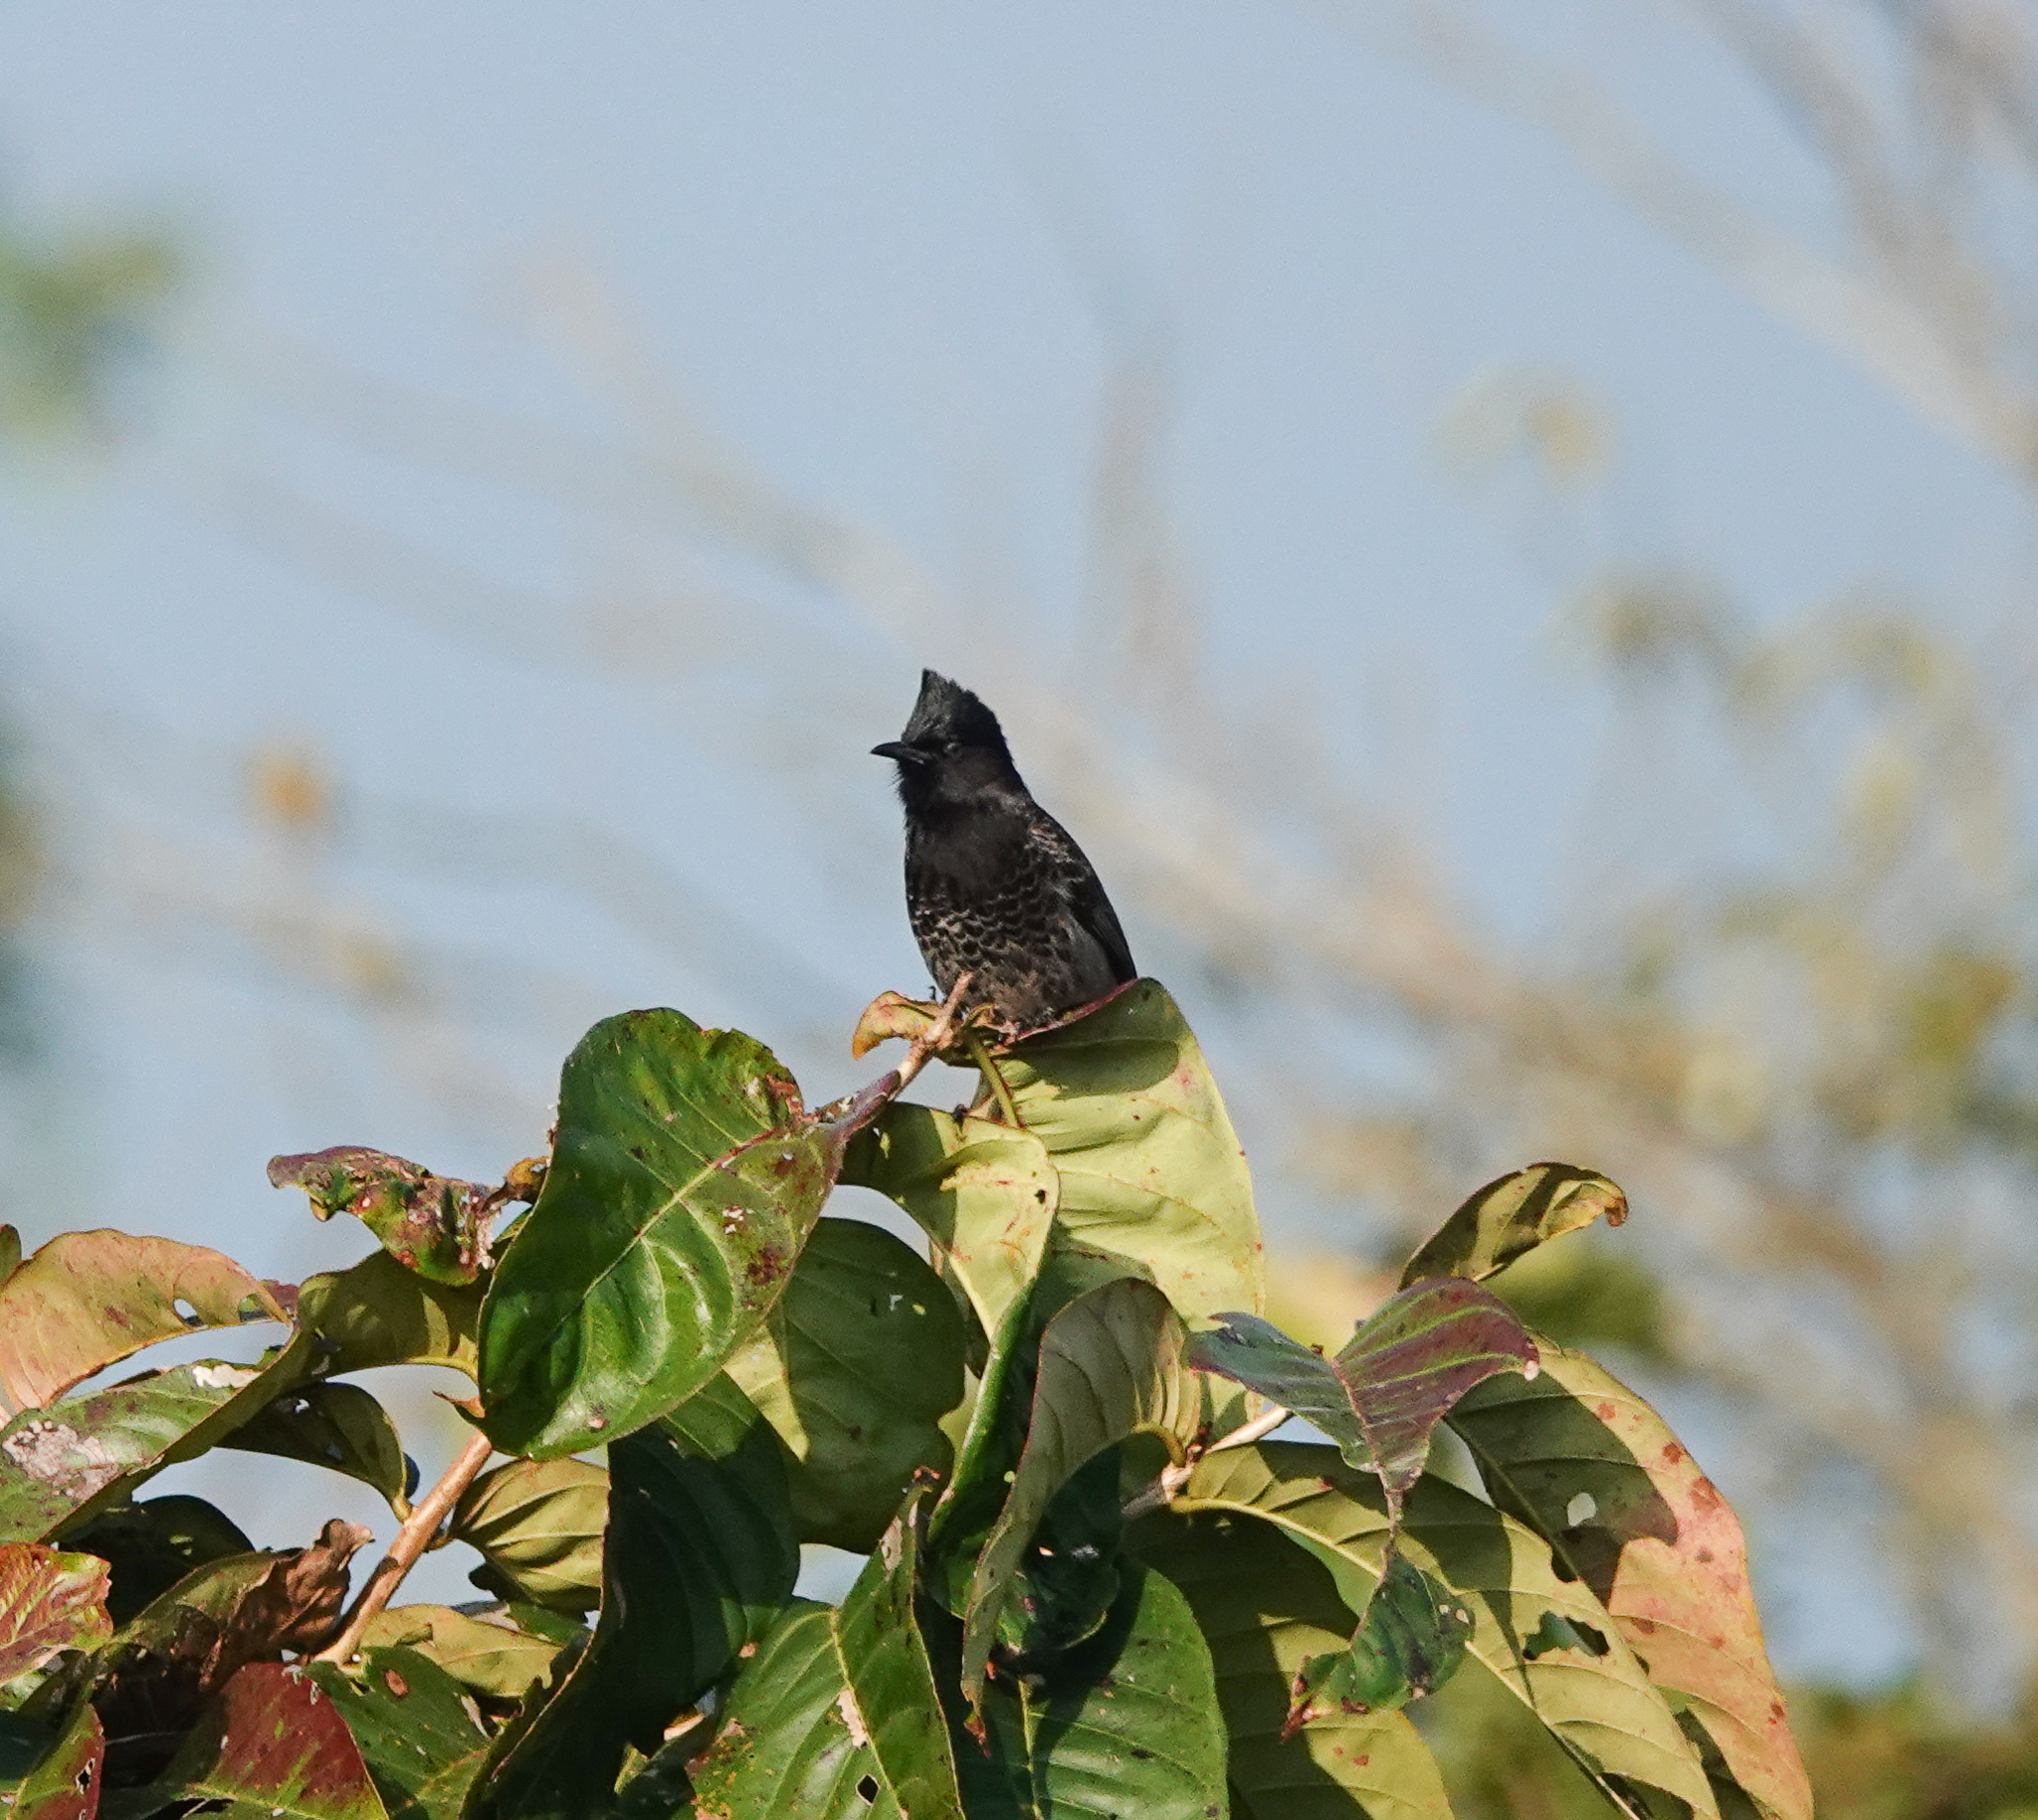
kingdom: Animalia
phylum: Chordata
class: Aves
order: Passeriformes
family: Pycnonotidae
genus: Pycnonotus
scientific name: Pycnonotus cafer
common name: Red-vented bulbul
